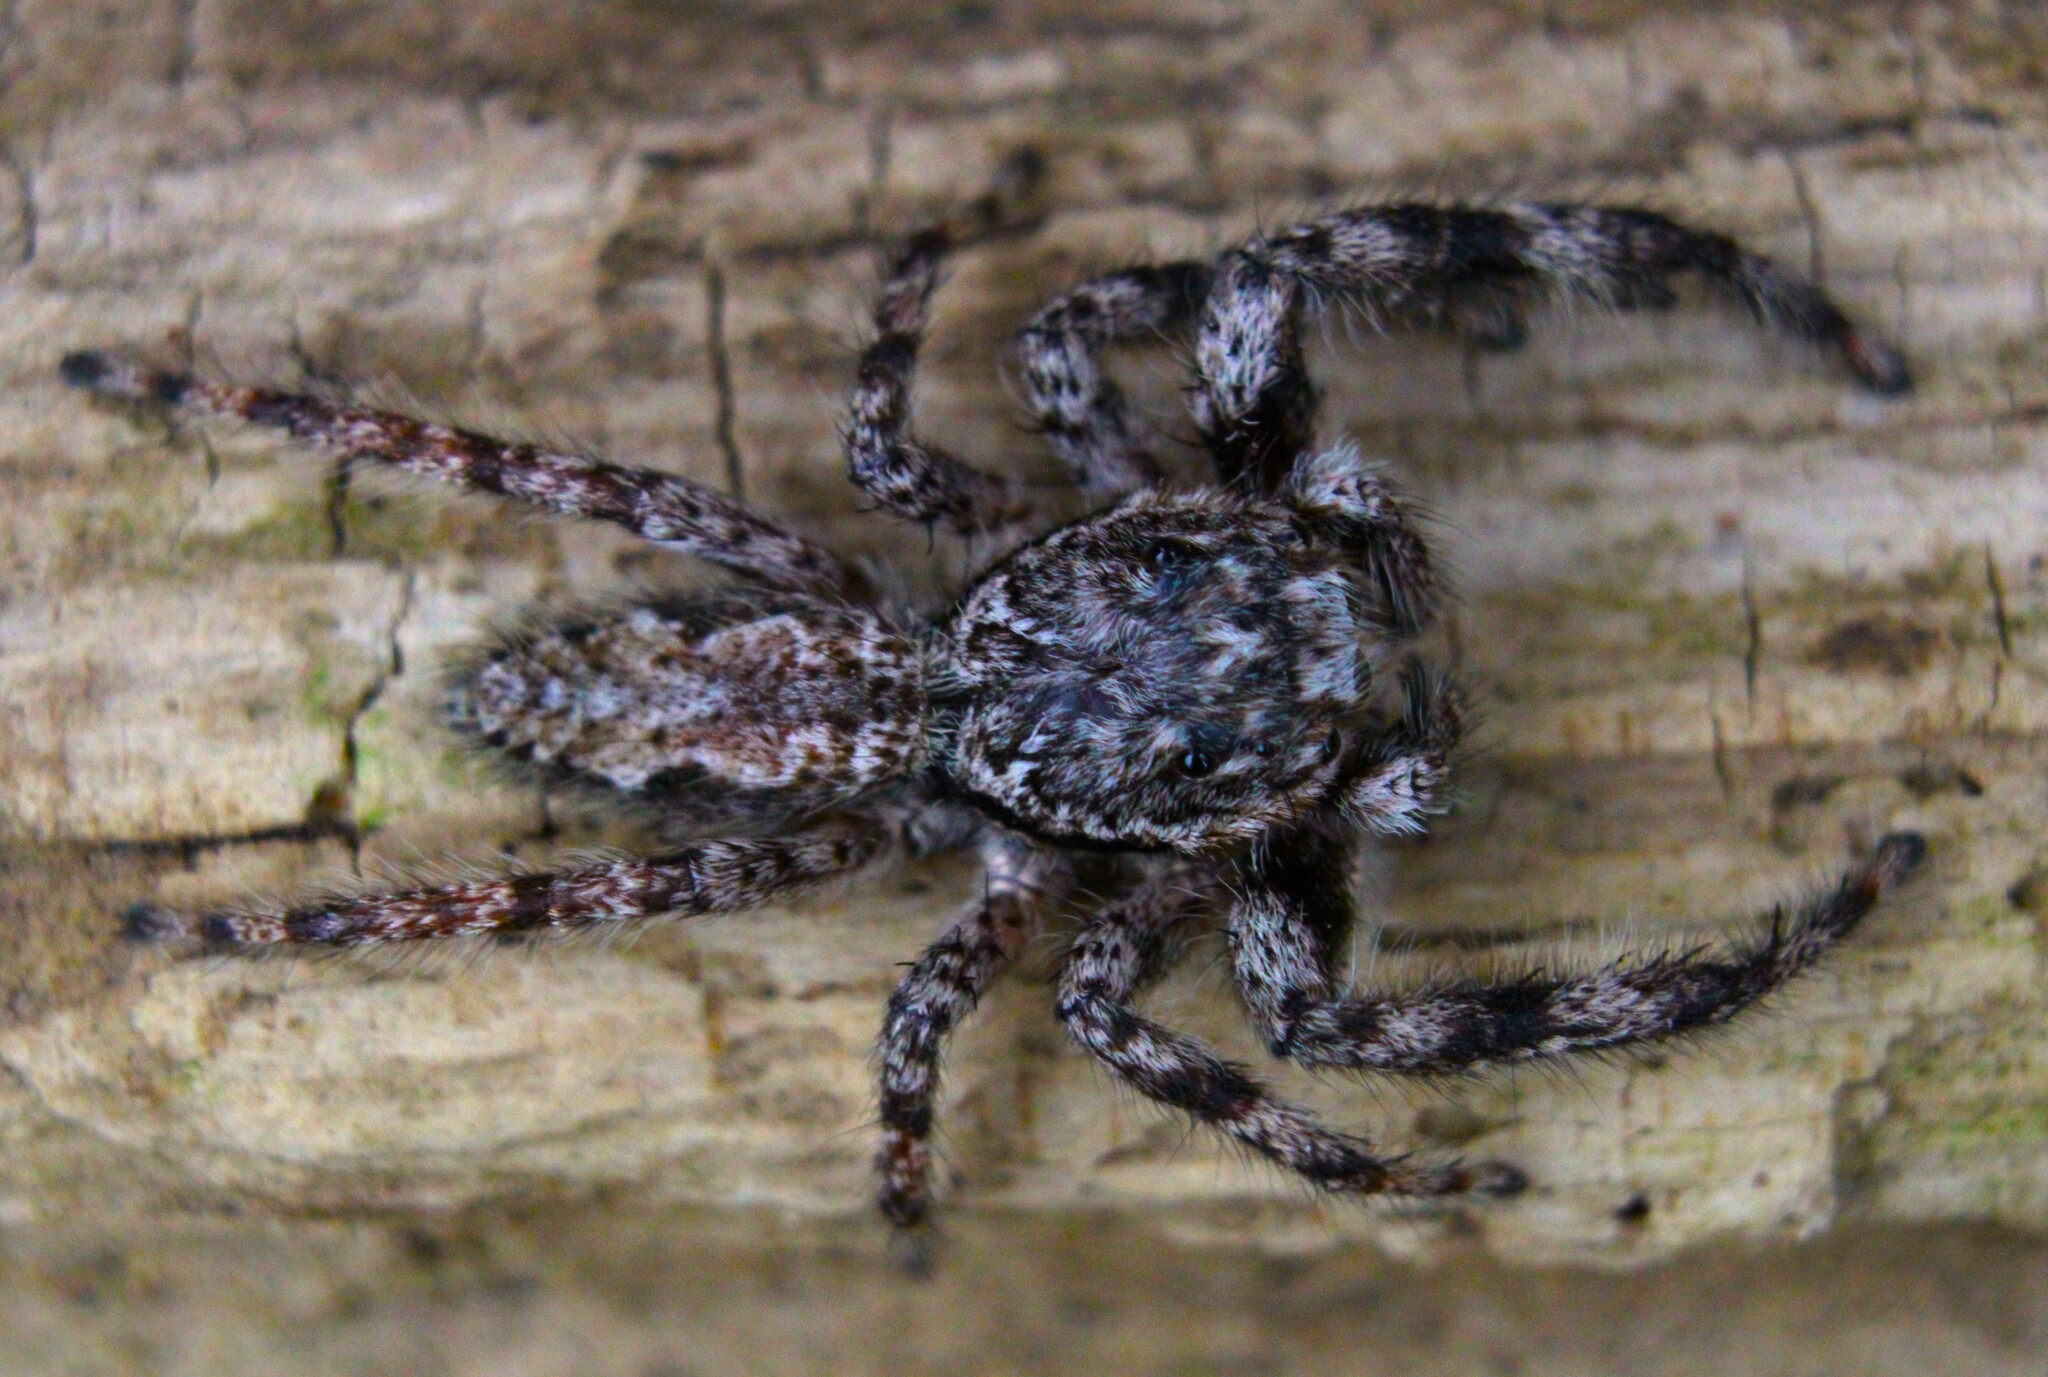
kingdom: Animalia
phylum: Arthropoda
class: Arachnida
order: Araneae
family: Salticidae
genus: Platycryptus
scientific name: Platycryptus undatus
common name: Tan jumping spider
